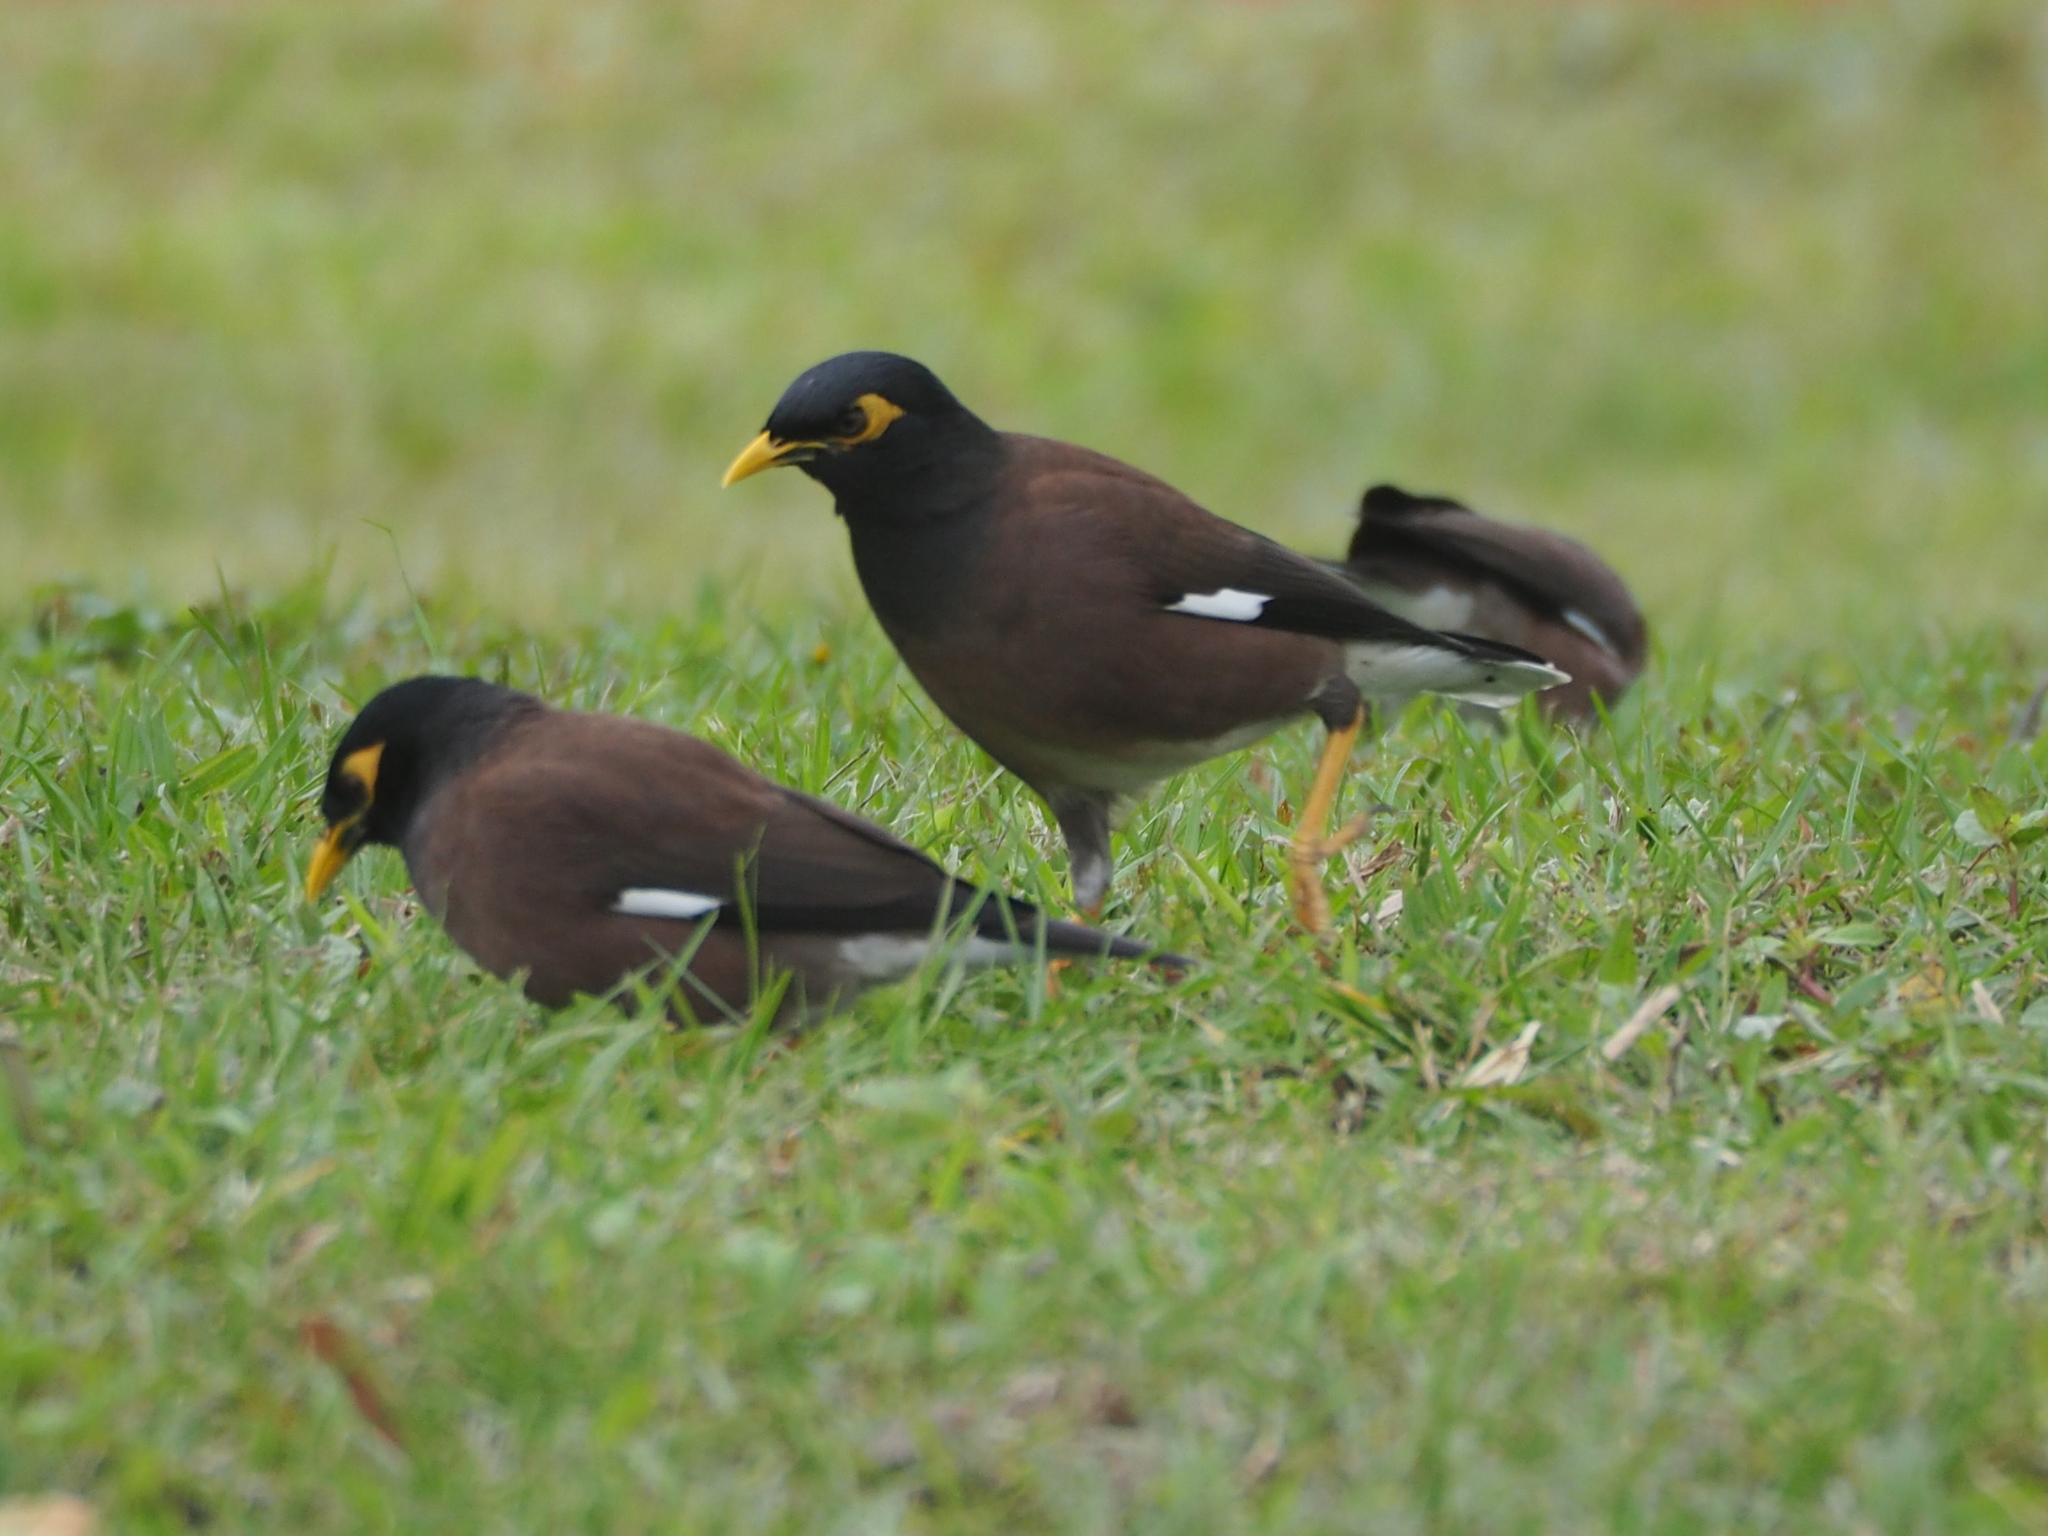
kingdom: Animalia
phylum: Chordata
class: Aves
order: Passeriformes
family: Sturnidae
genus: Acridotheres
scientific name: Acridotheres tristis
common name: Common myna
